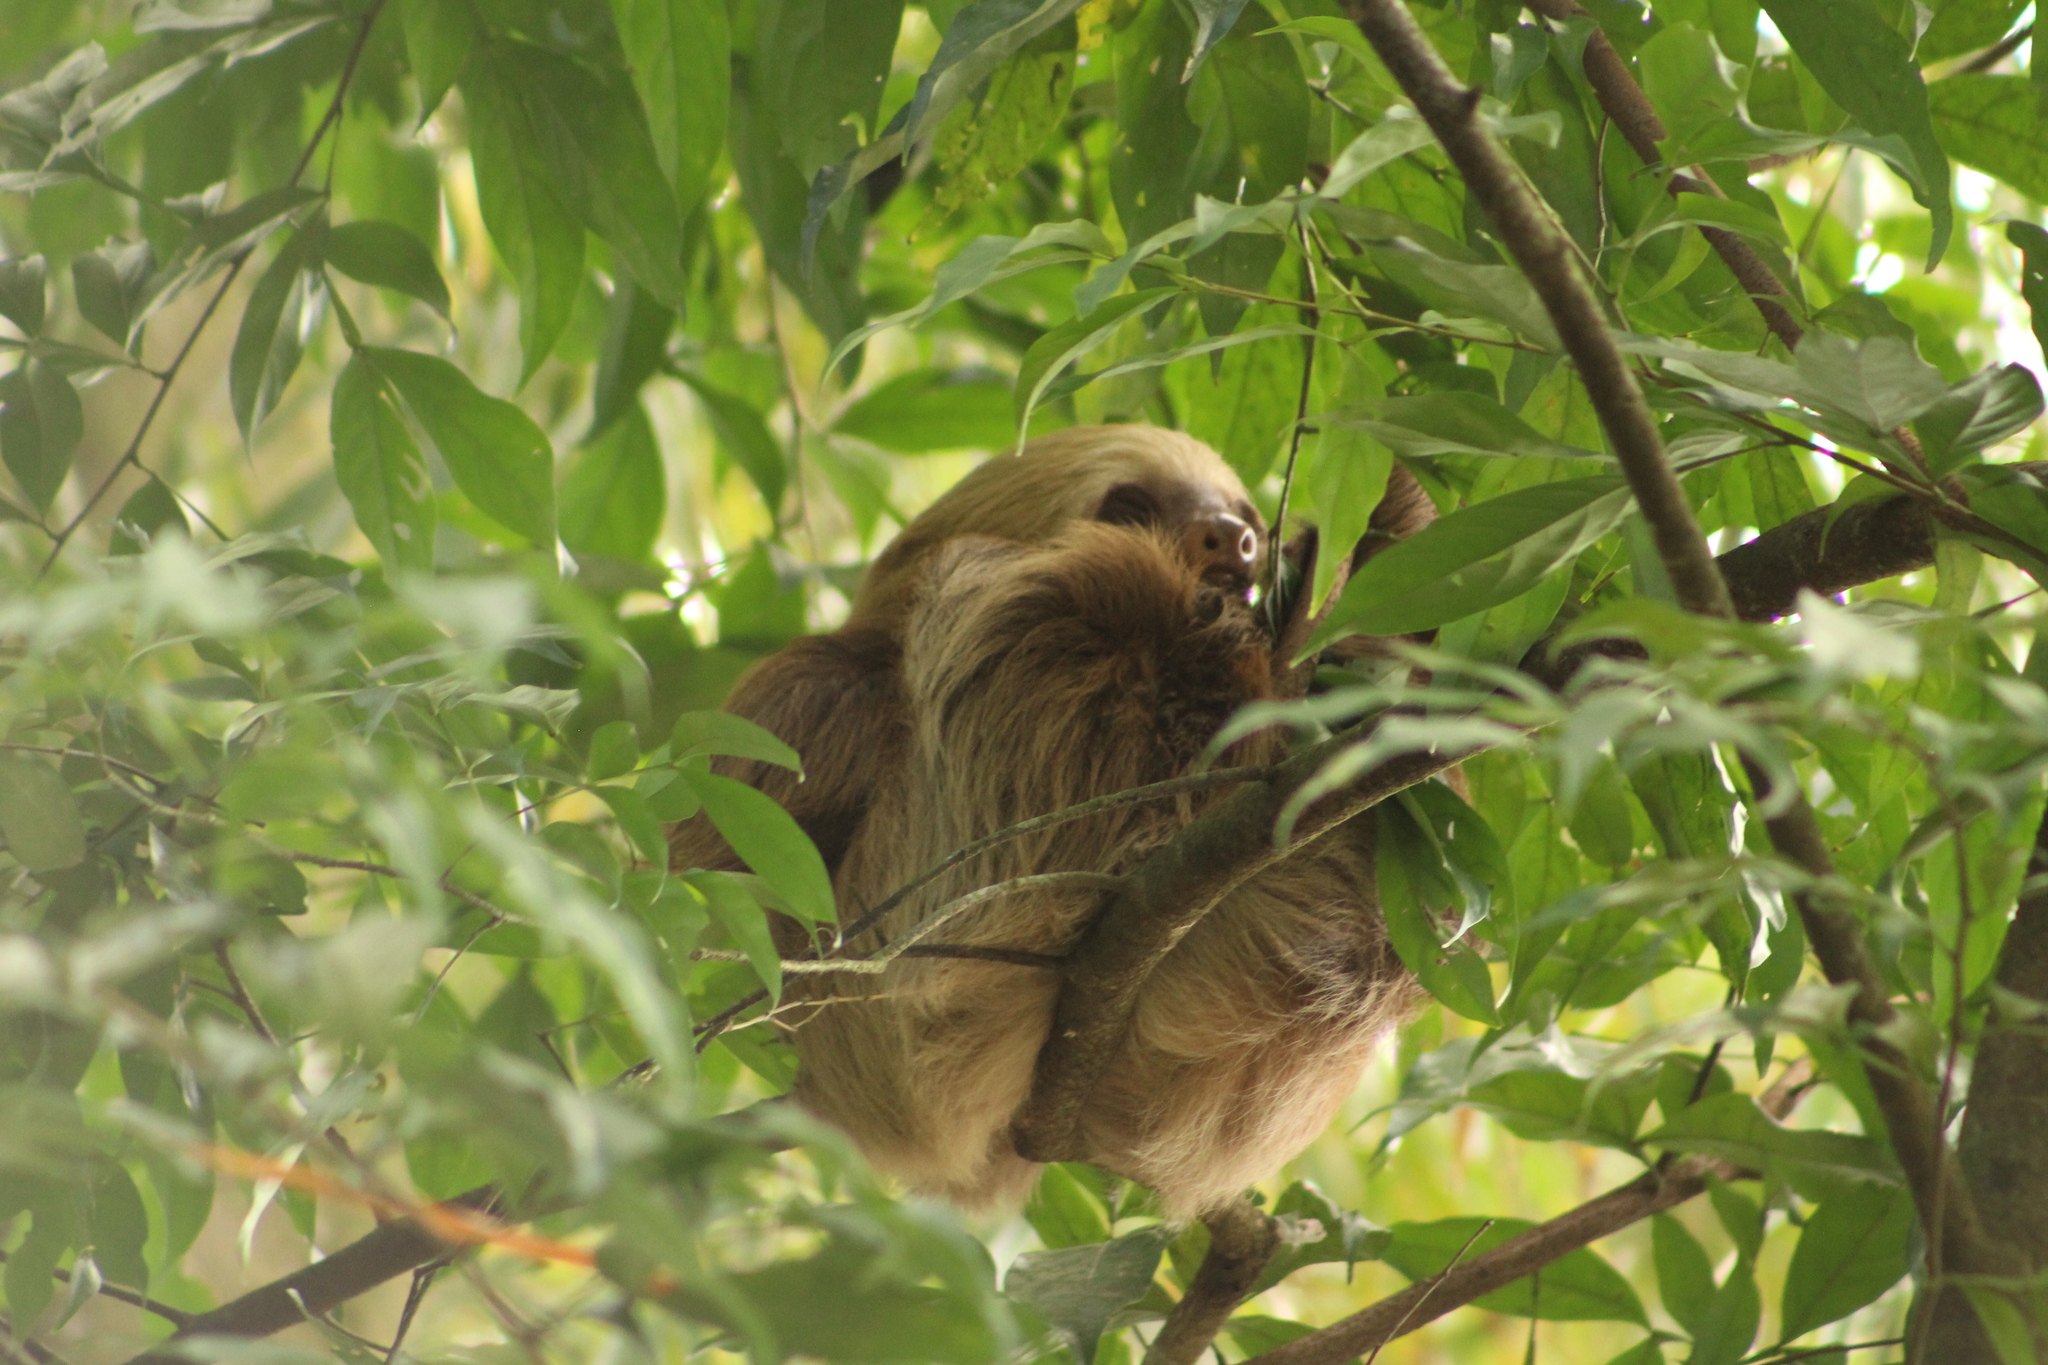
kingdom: Animalia
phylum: Chordata
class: Mammalia
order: Pilosa
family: Megalonychidae
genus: Choloepus
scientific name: Choloepus hoffmanni
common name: Hoffmann's two-toed sloth
